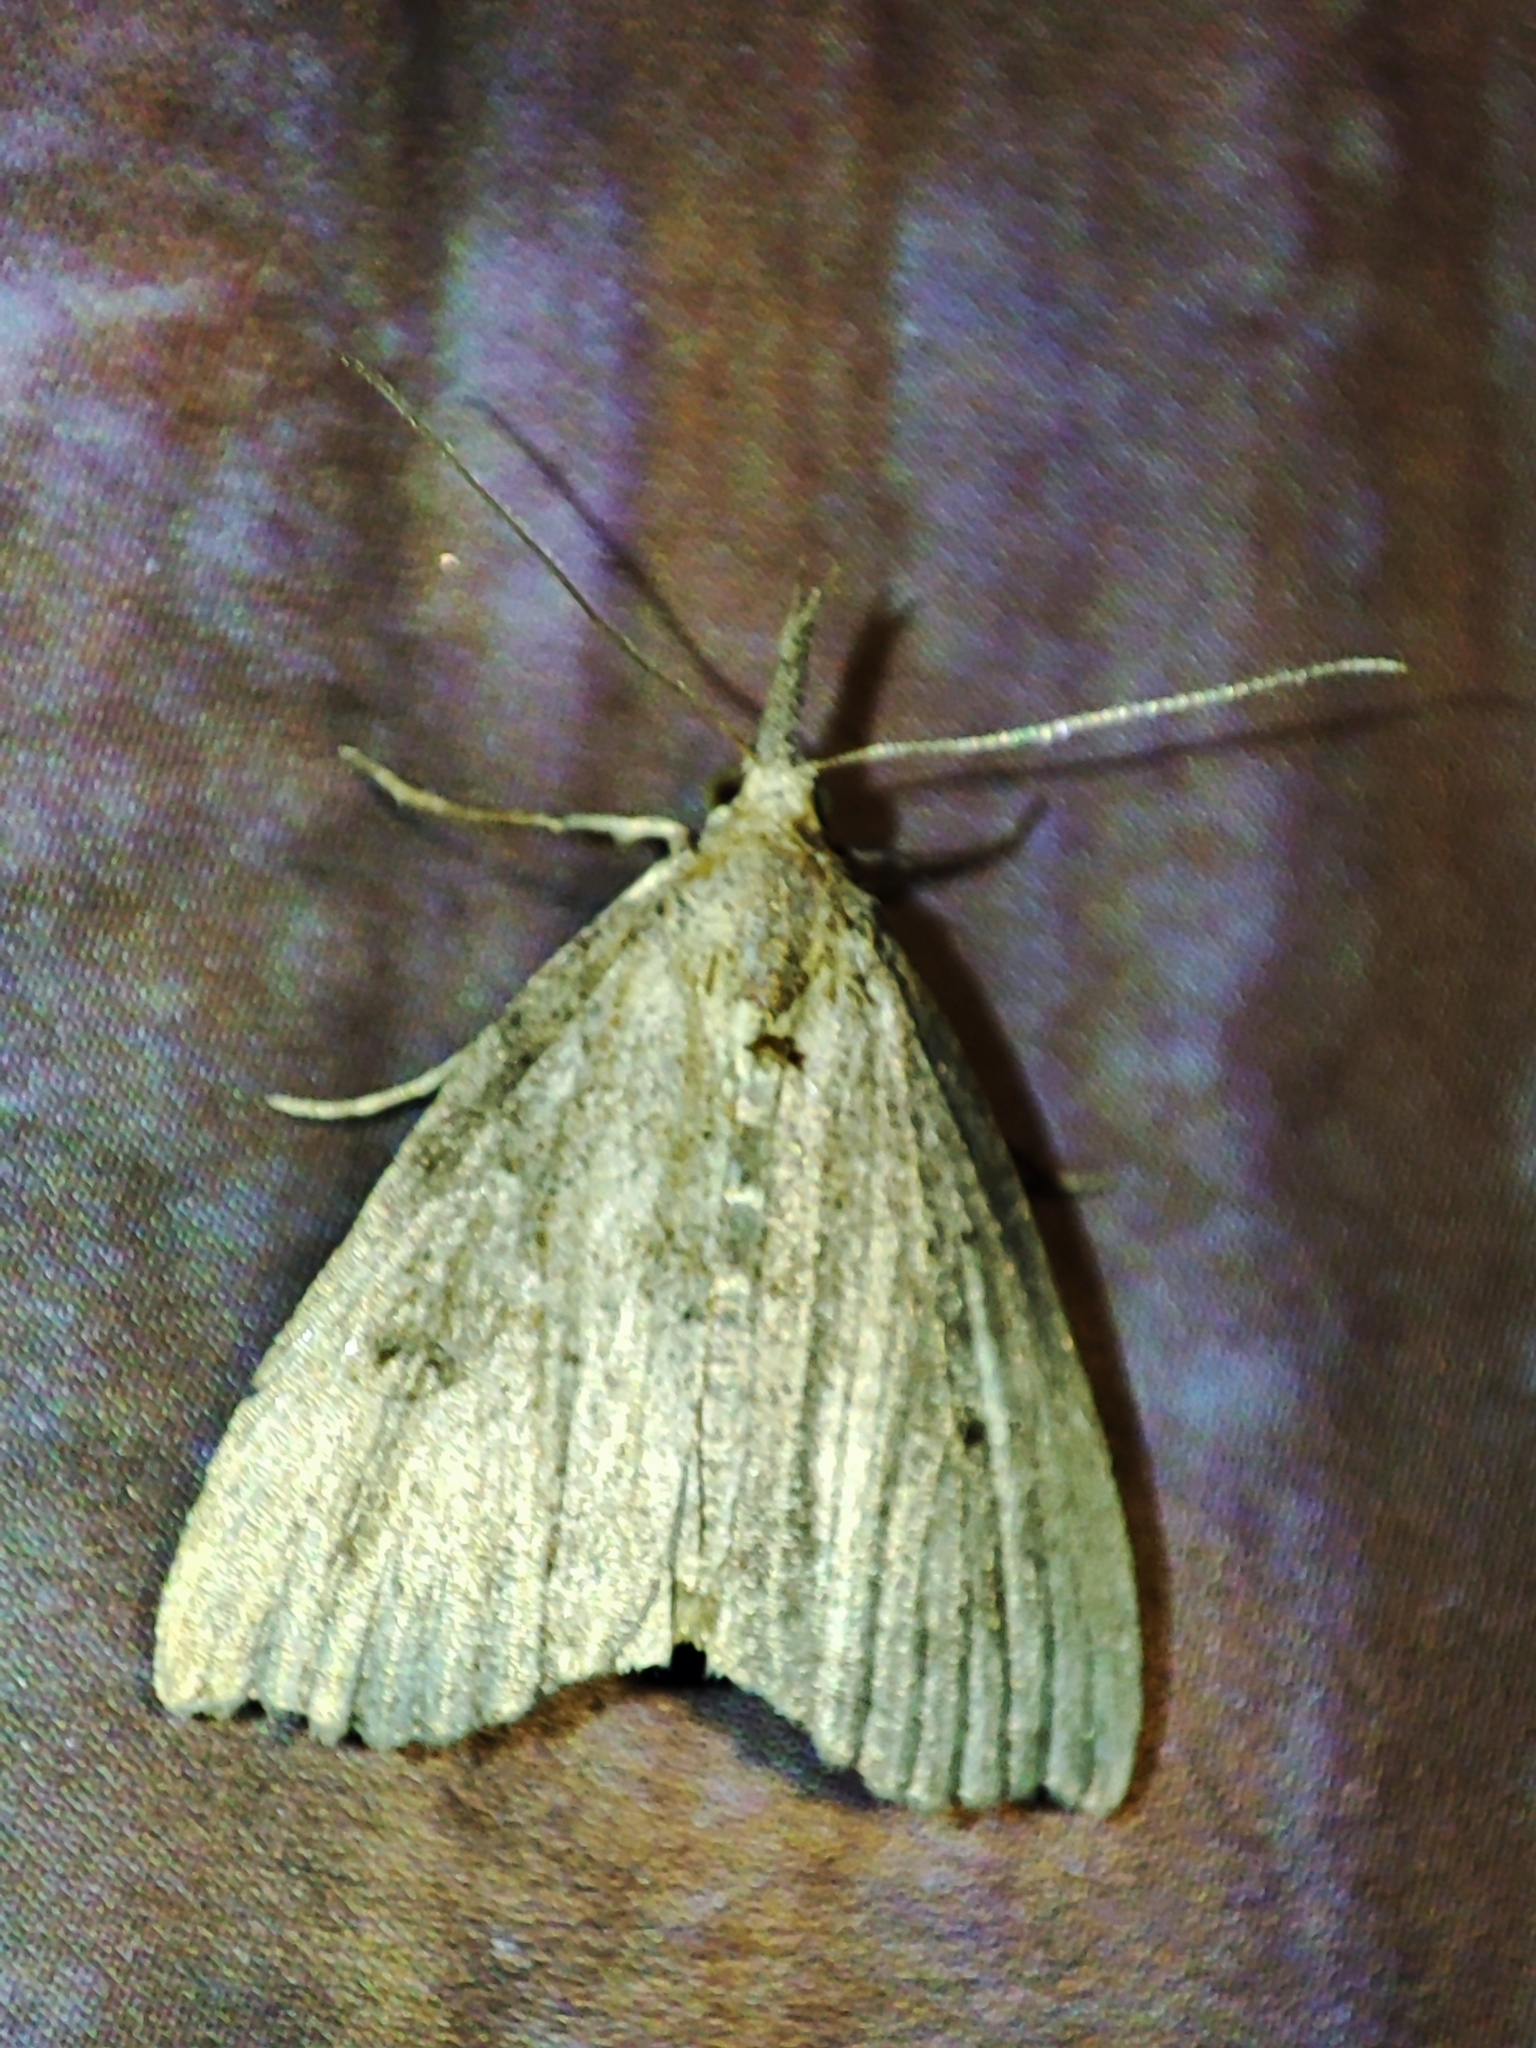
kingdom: Animalia
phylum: Arthropoda
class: Insecta
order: Lepidoptera
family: Erebidae
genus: Hypena
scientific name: Hypena rostralis
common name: Buttoned snout
